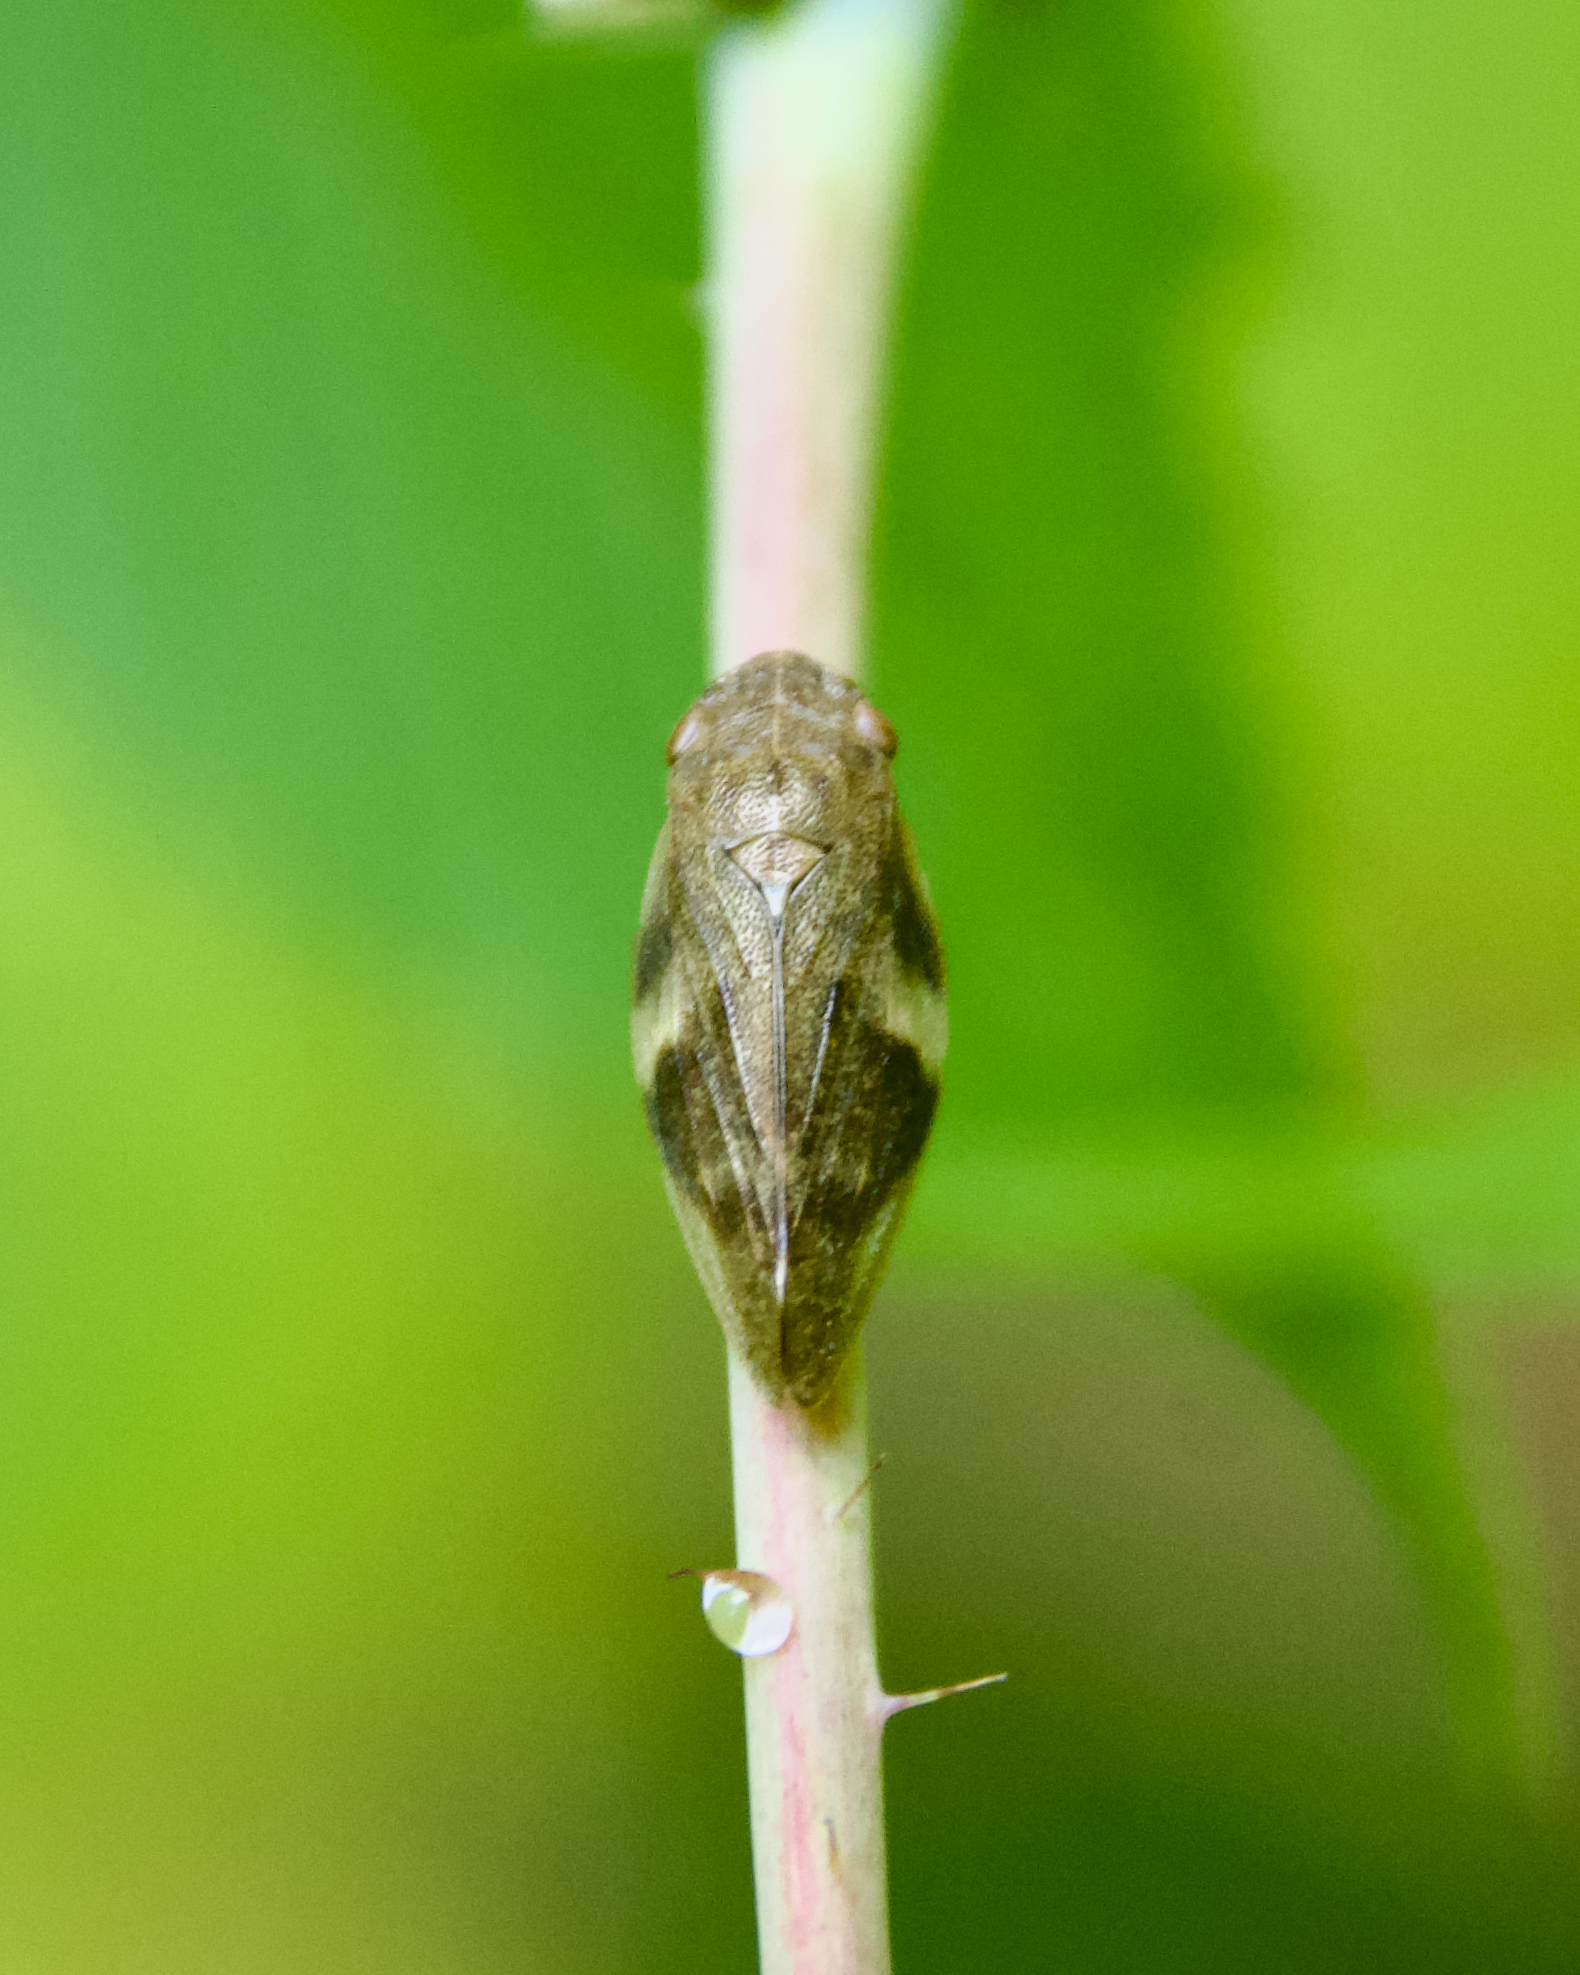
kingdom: Animalia
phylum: Arthropoda
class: Insecta
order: Hemiptera
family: Aphrophoridae
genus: Aphrophora
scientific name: Aphrophora alni
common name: European alder spittlebug
